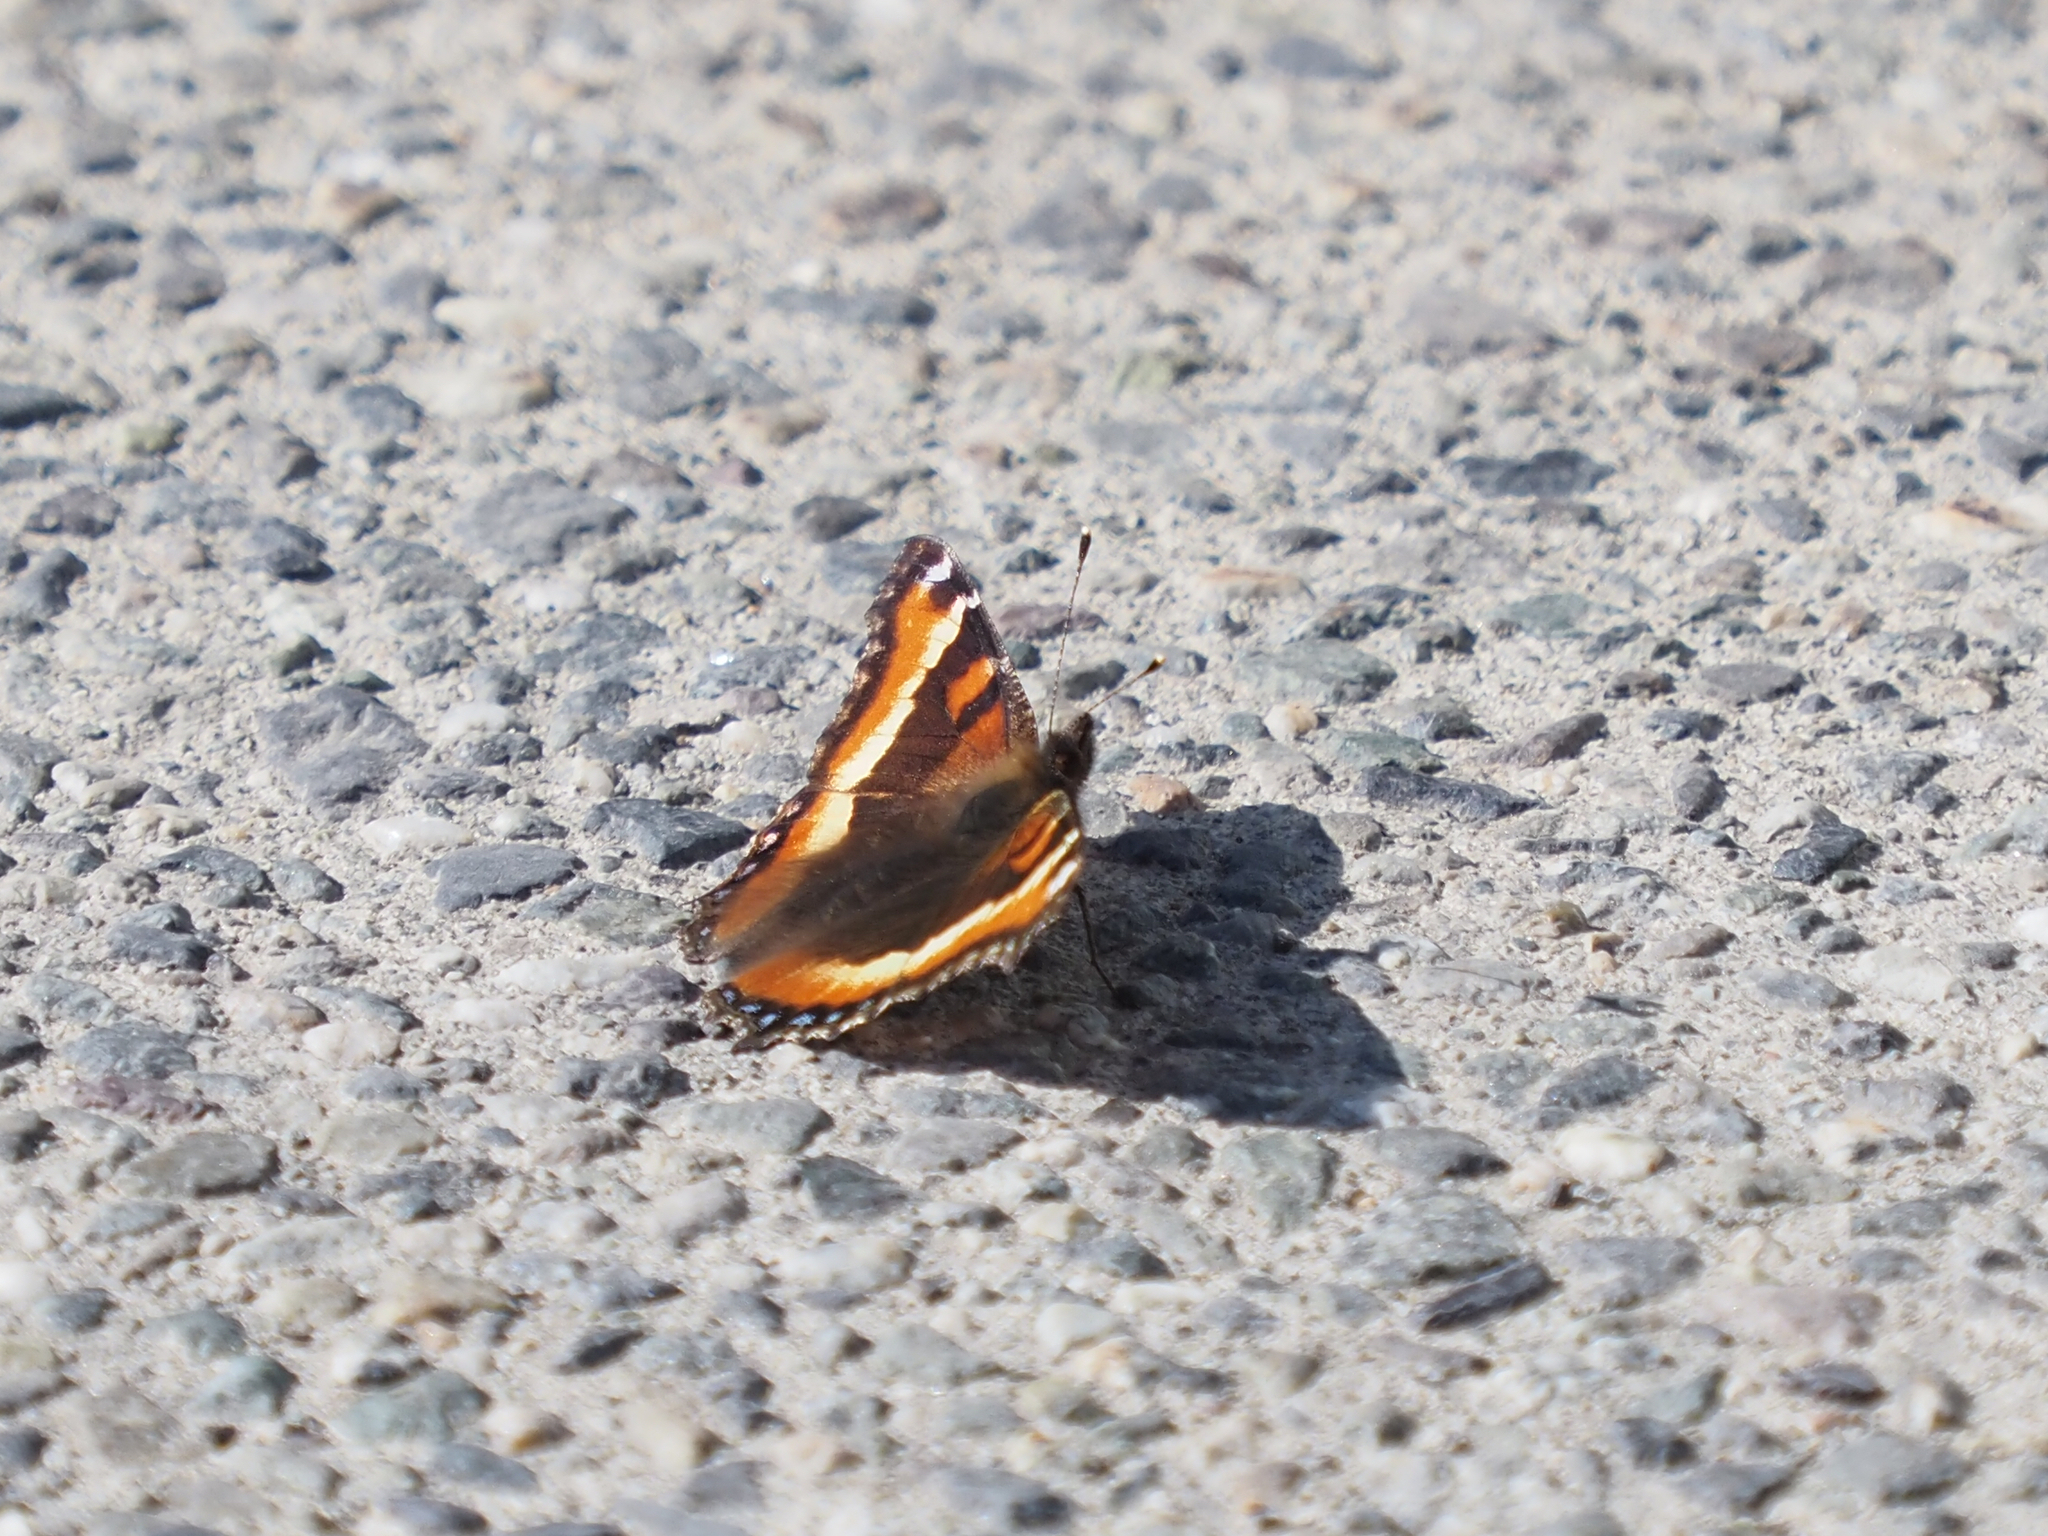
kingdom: Animalia
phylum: Arthropoda
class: Insecta
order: Lepidoptera
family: Nymphalidae
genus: Aglais
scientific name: Aglais milberti
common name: Milbert's tortoiseshell
